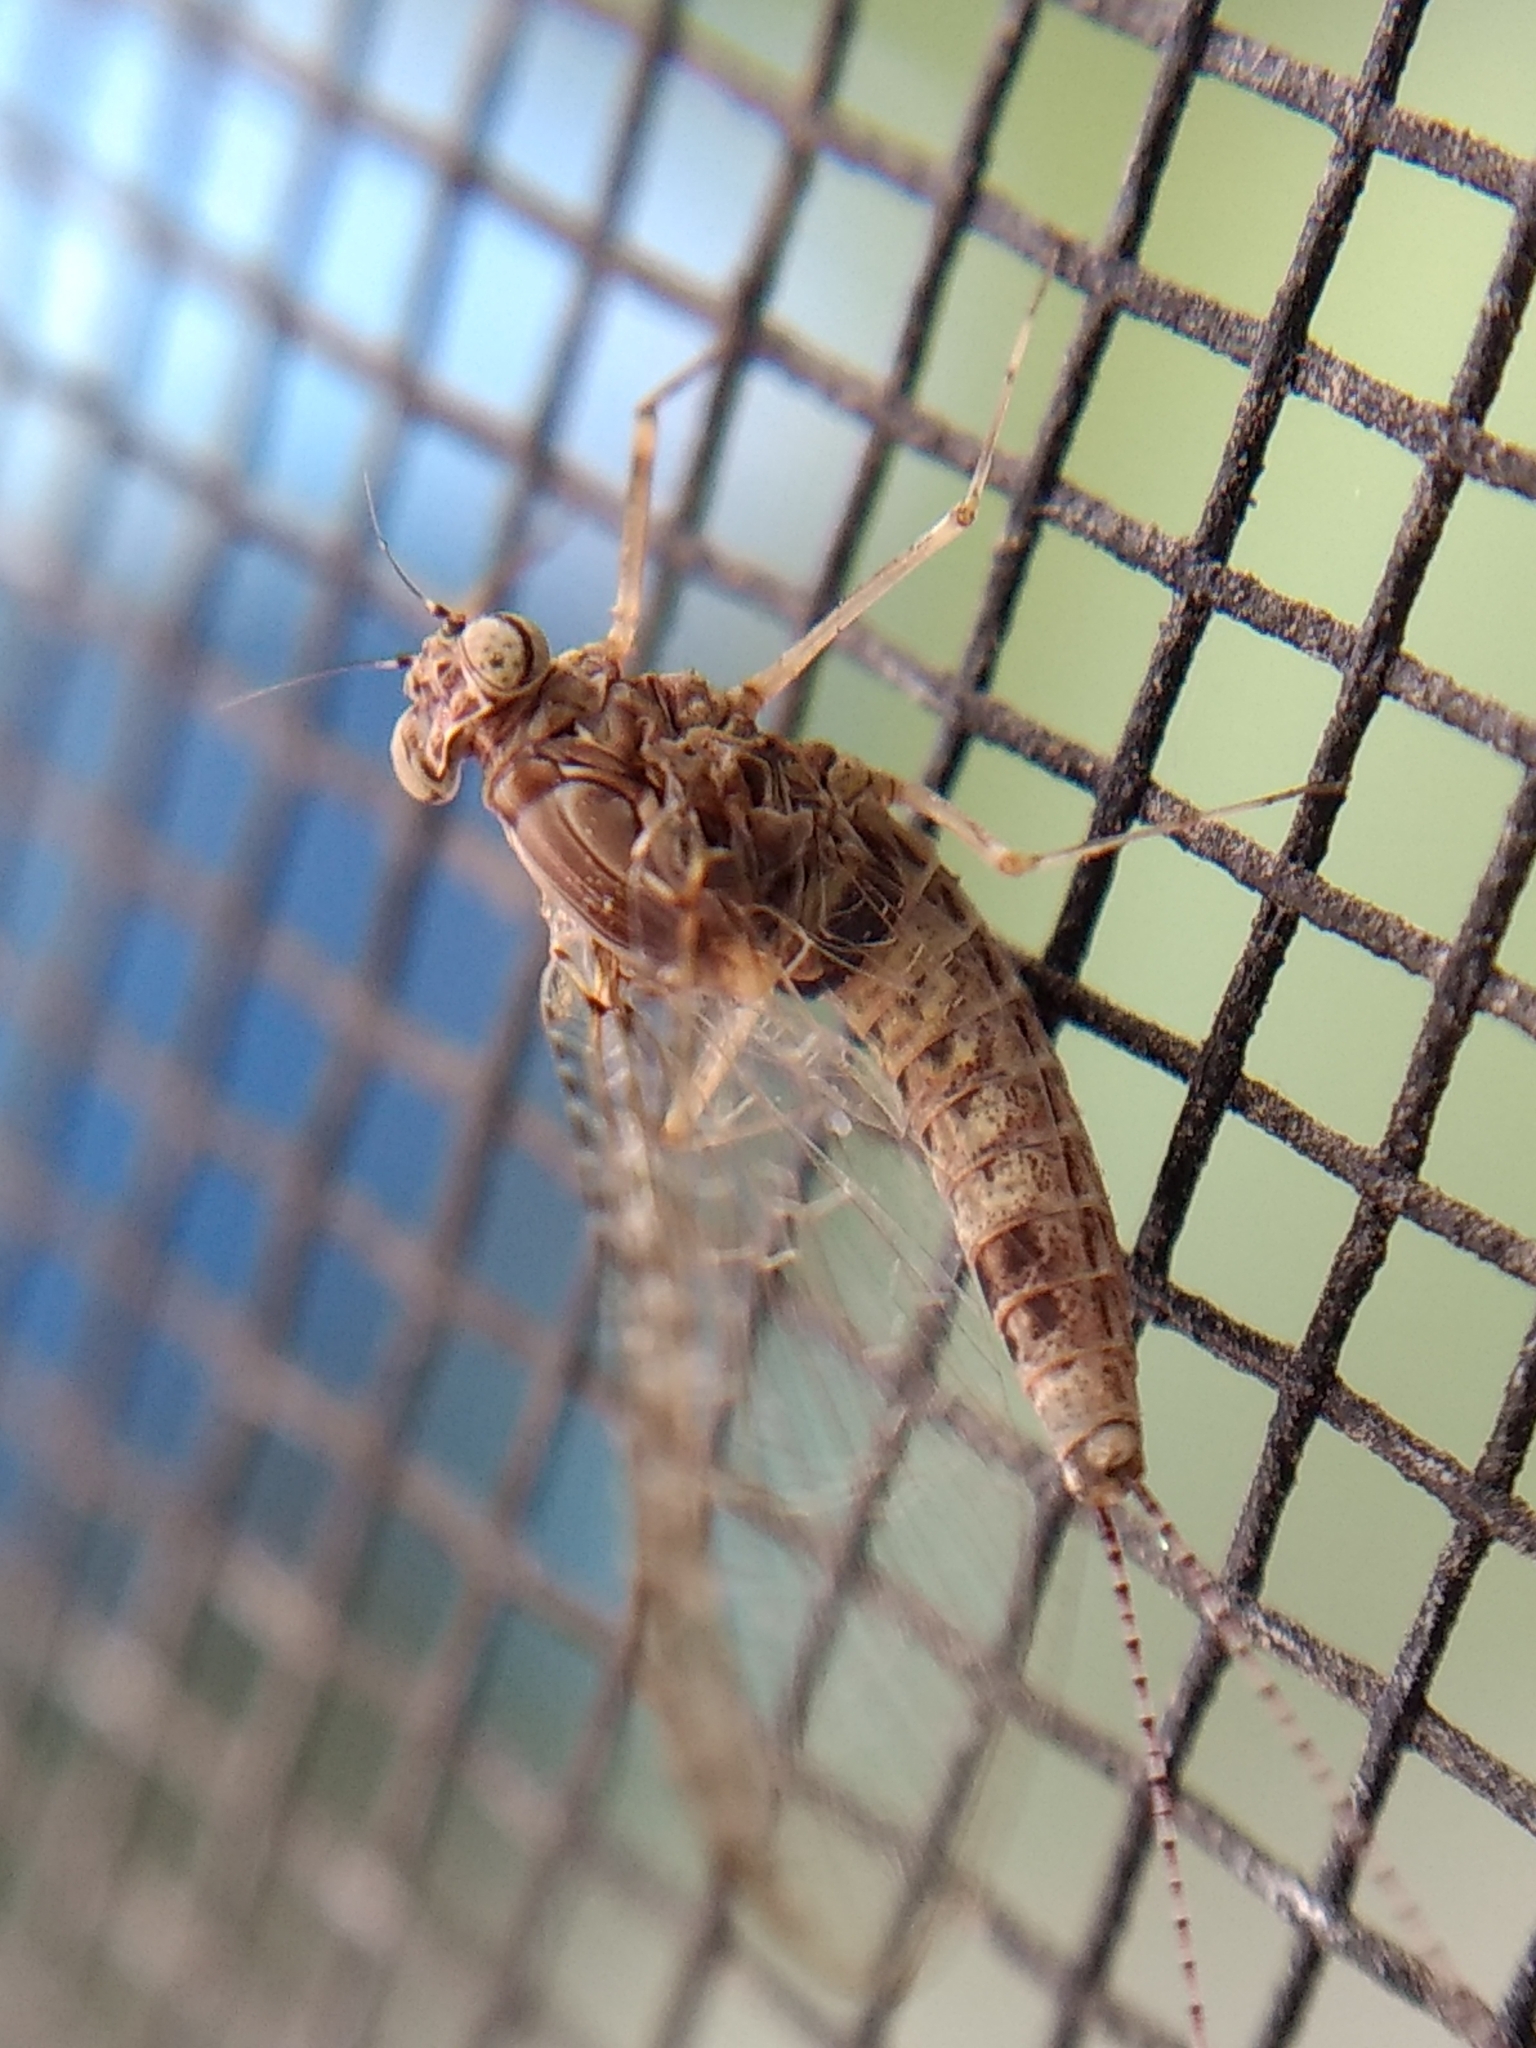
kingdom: Animalia
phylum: Arthropoda
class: Insecta
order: Ephemeroptera
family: Baetidae
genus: Callibaetis
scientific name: Callibaetis pictus
